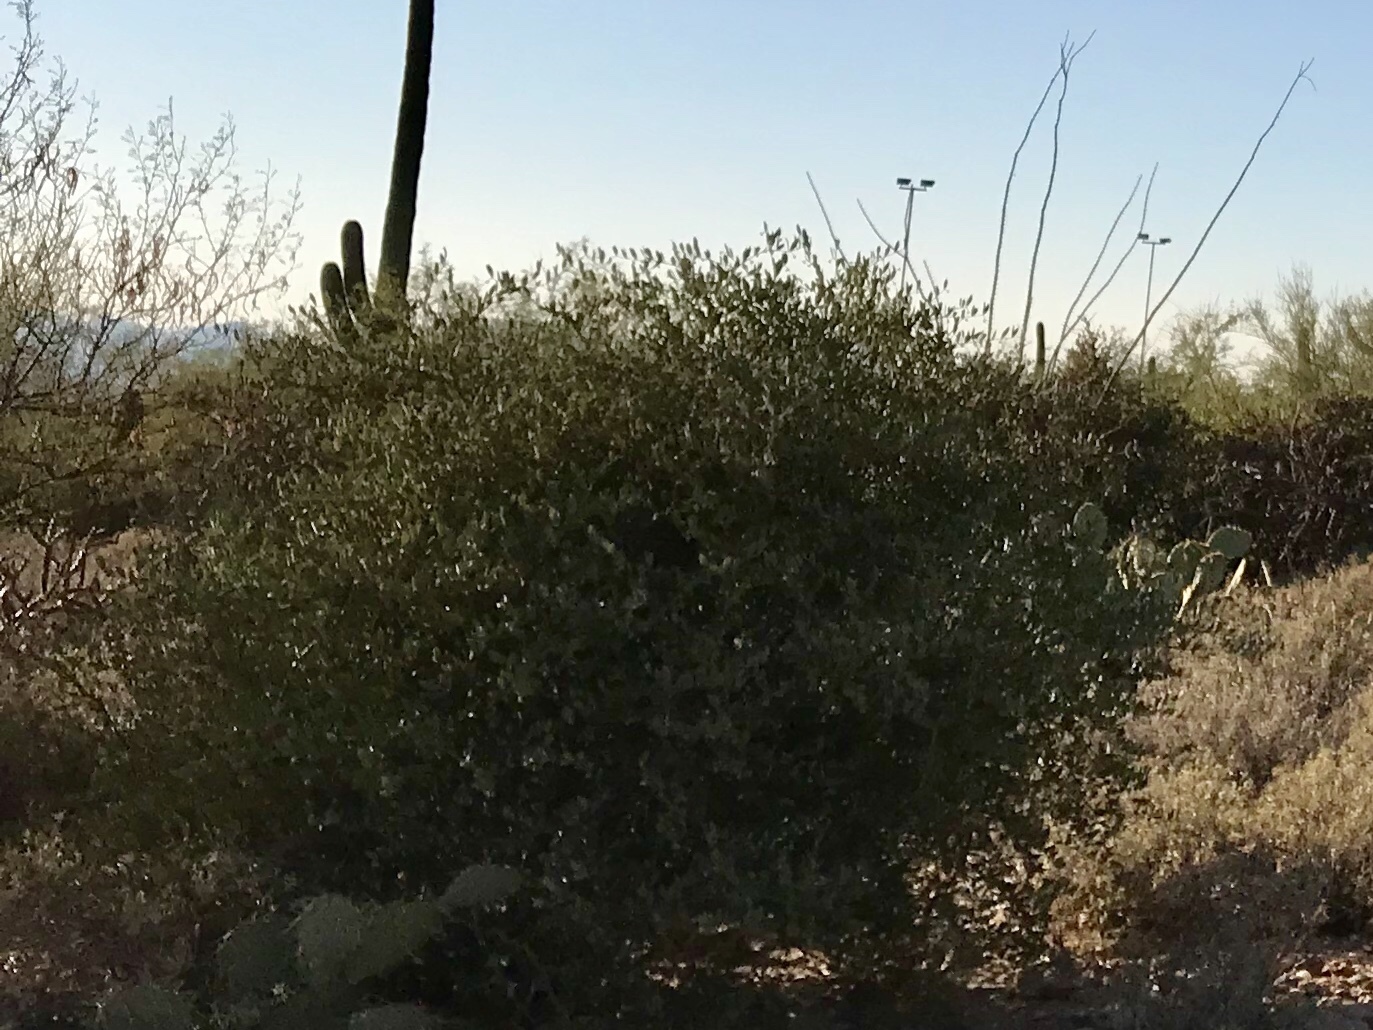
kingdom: Plantae
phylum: Tracheophyta
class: Magnoliopsida
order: Caryophyllales
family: Simmondsiaceae
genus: Simmondsia
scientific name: Simmondsia chinensis
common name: Jojoba
